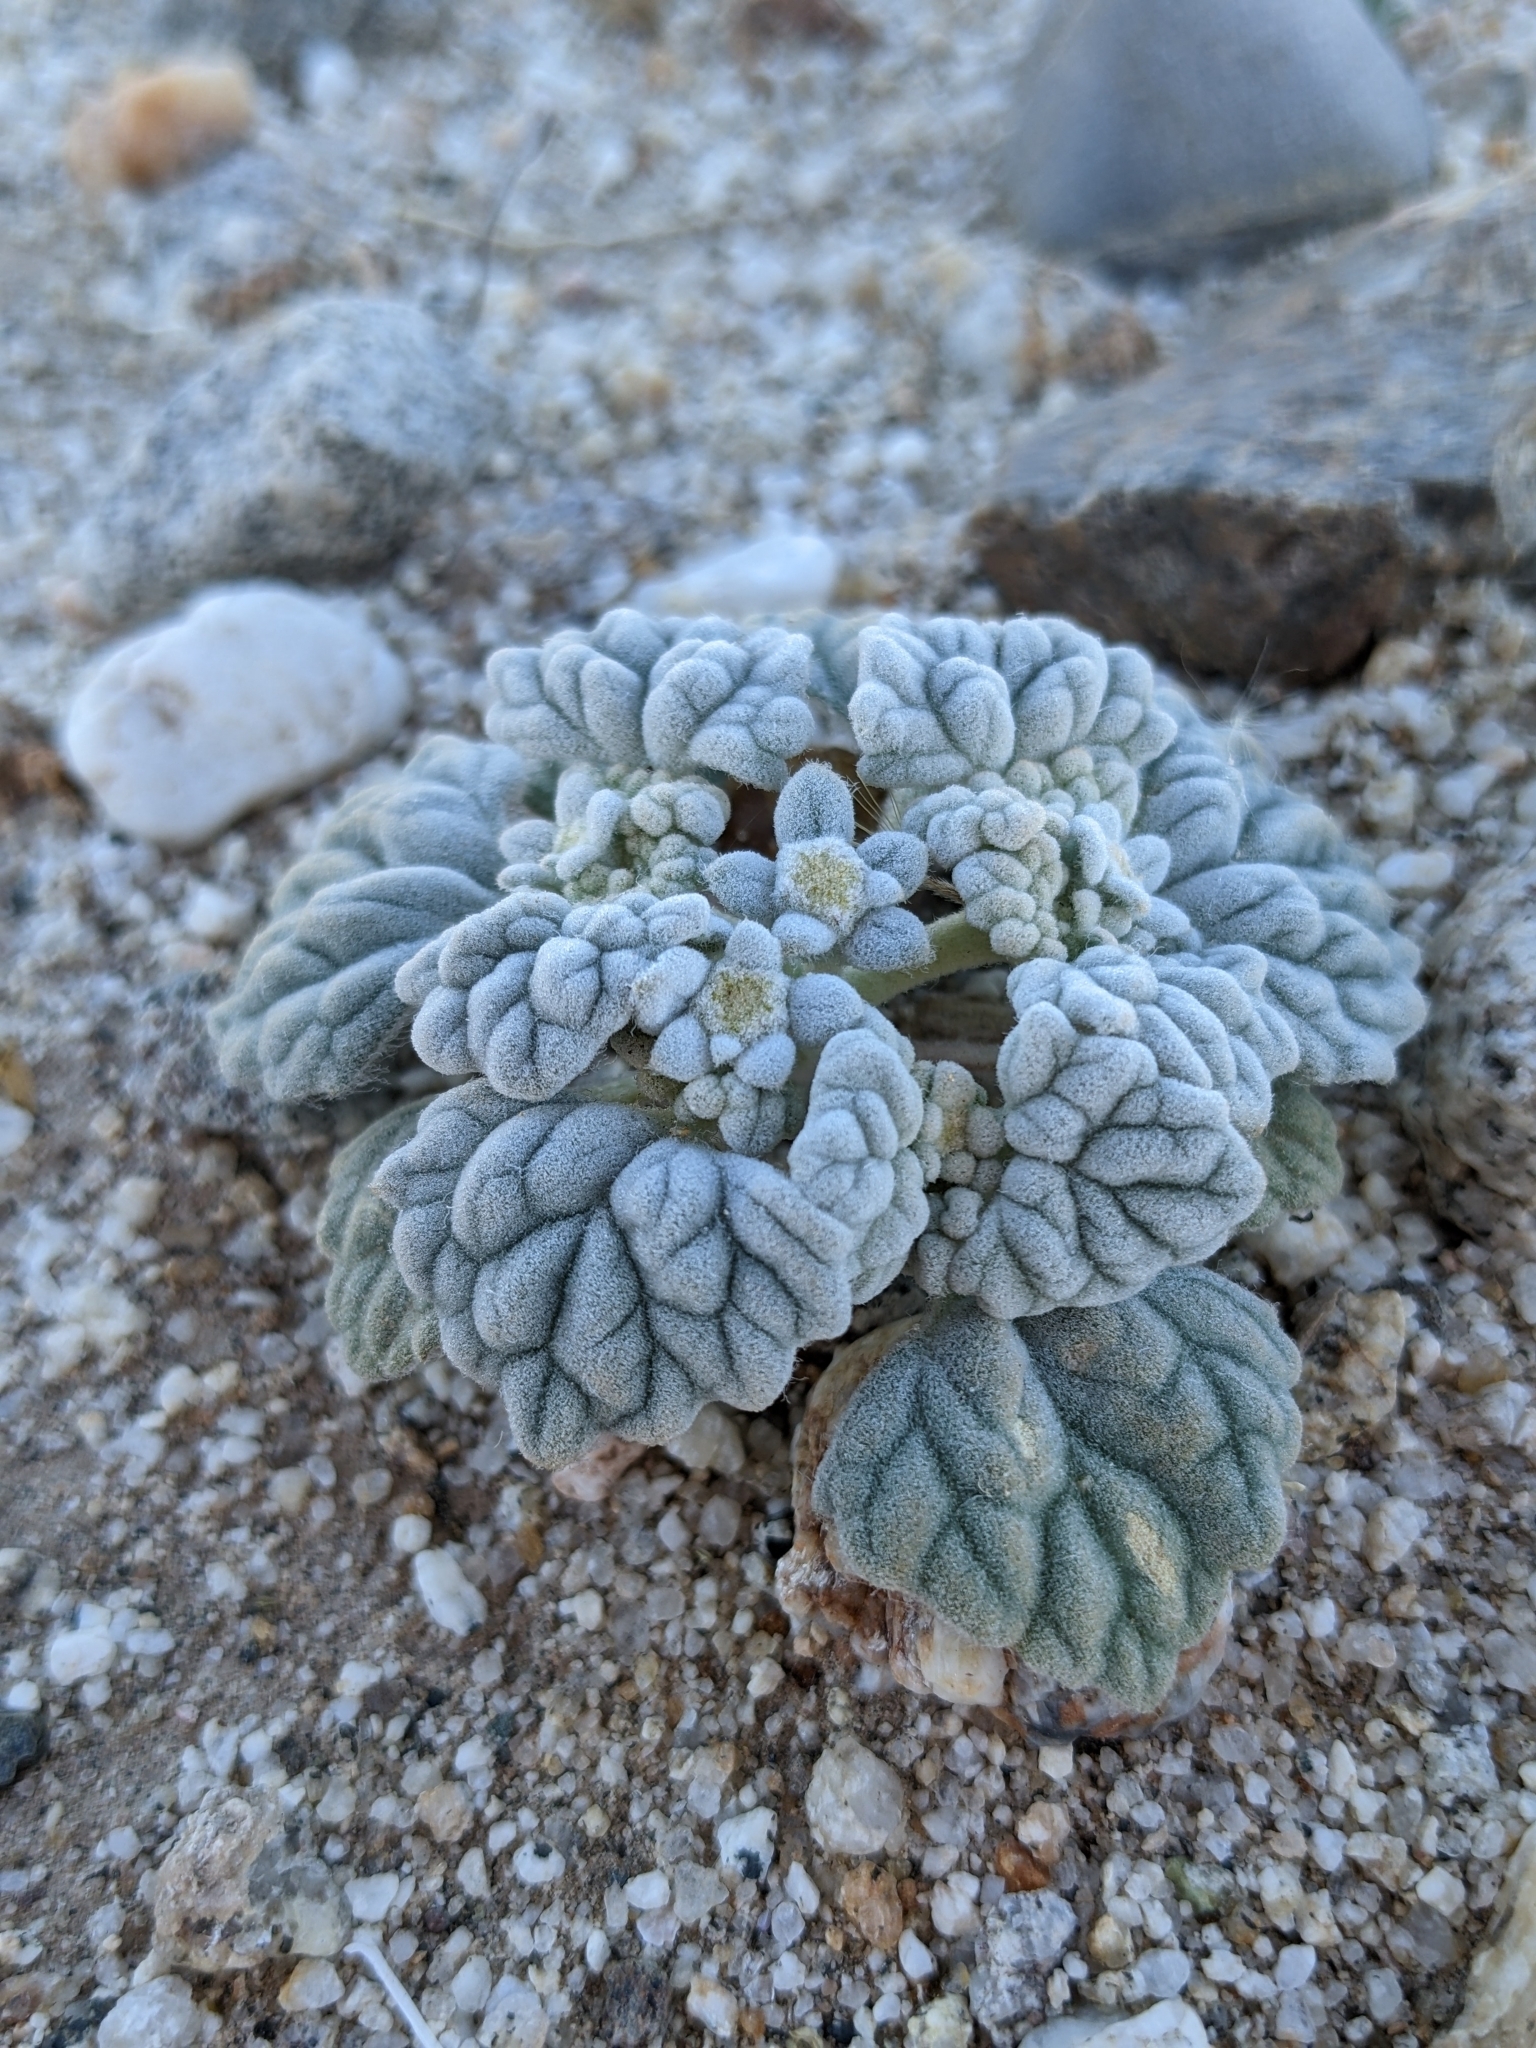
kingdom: Plantae
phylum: Tracheophyta
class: Magnoliopsida
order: Asterales
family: Asteraceae
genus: Psathyrotes
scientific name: Psathyrotes ramosissima
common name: Turtleback
